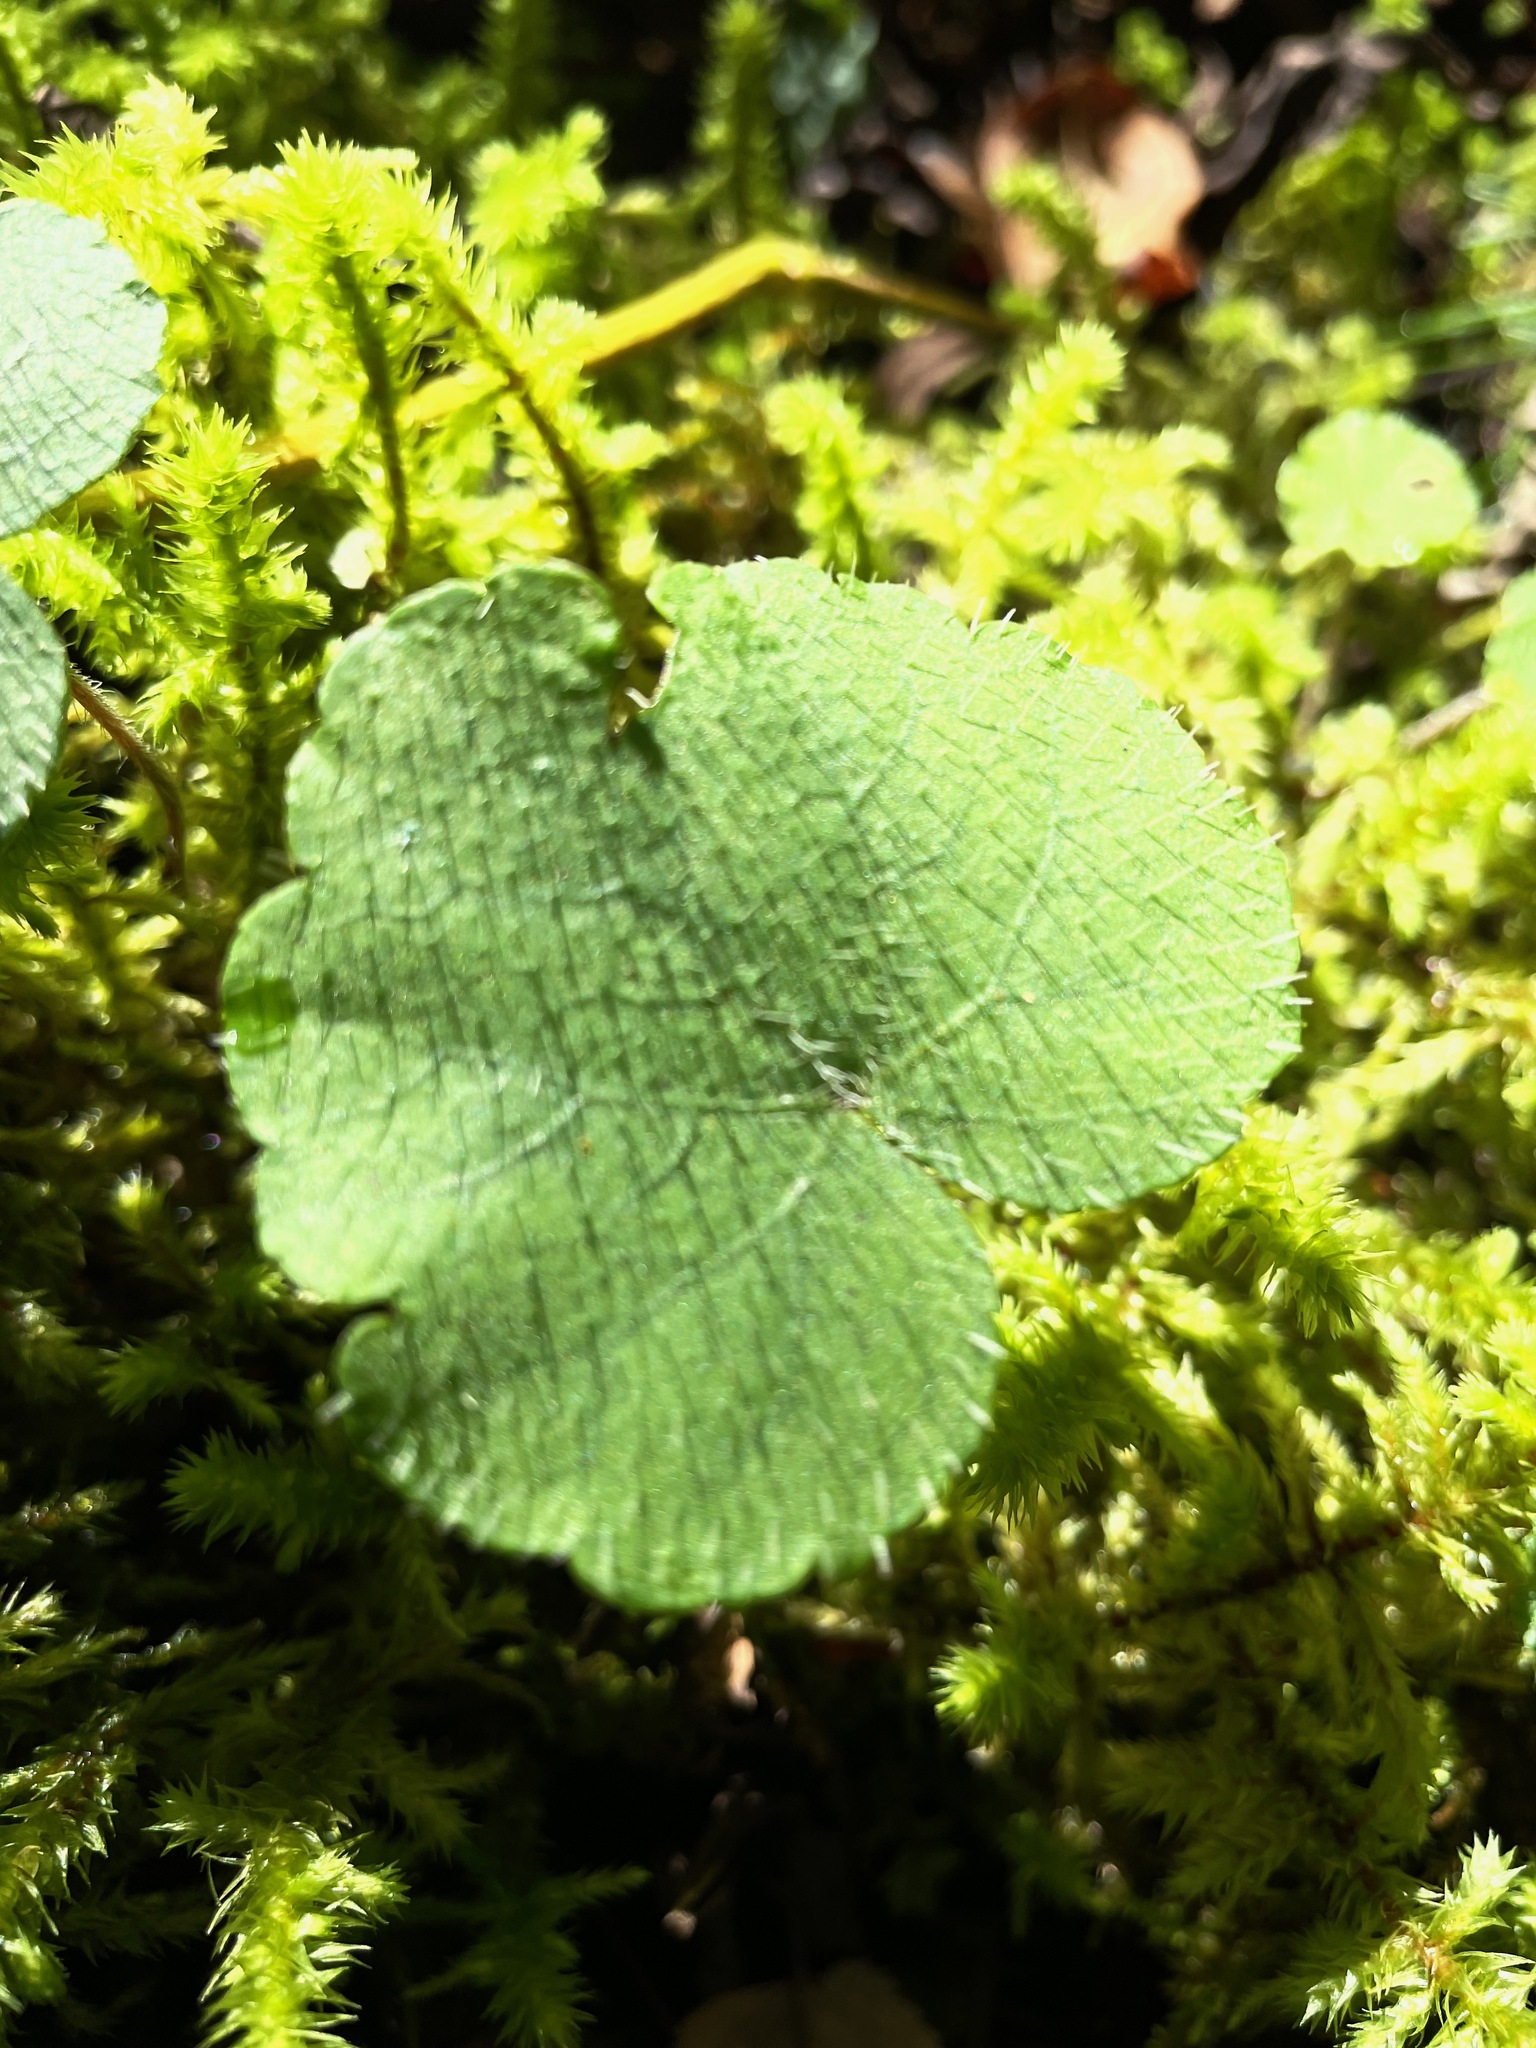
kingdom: Plantae
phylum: Tracheophyta
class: Magnoliopsida
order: Saxifragales
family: Saxifragaceae
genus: Mitella
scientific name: Mitella nuda
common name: Bare-stemmed bishop's-cap
